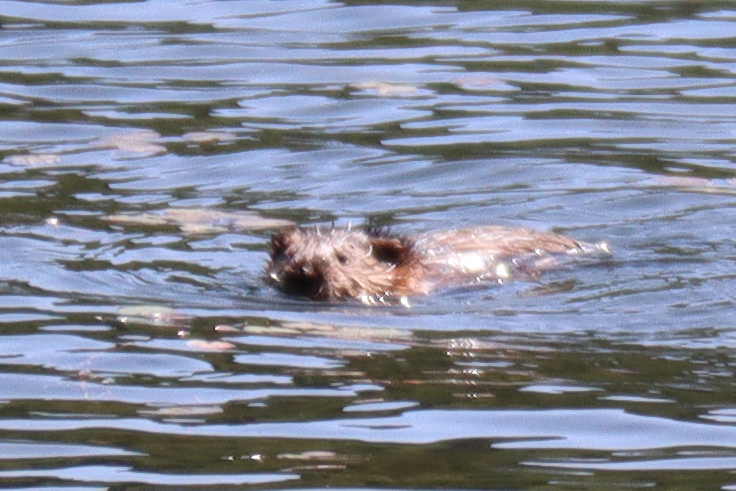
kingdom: Animalia
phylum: Chordata
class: Mammalia
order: Rodentia
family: Cricetidae
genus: Ondatra
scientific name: Ondatra zibethicus
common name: Muskrat
